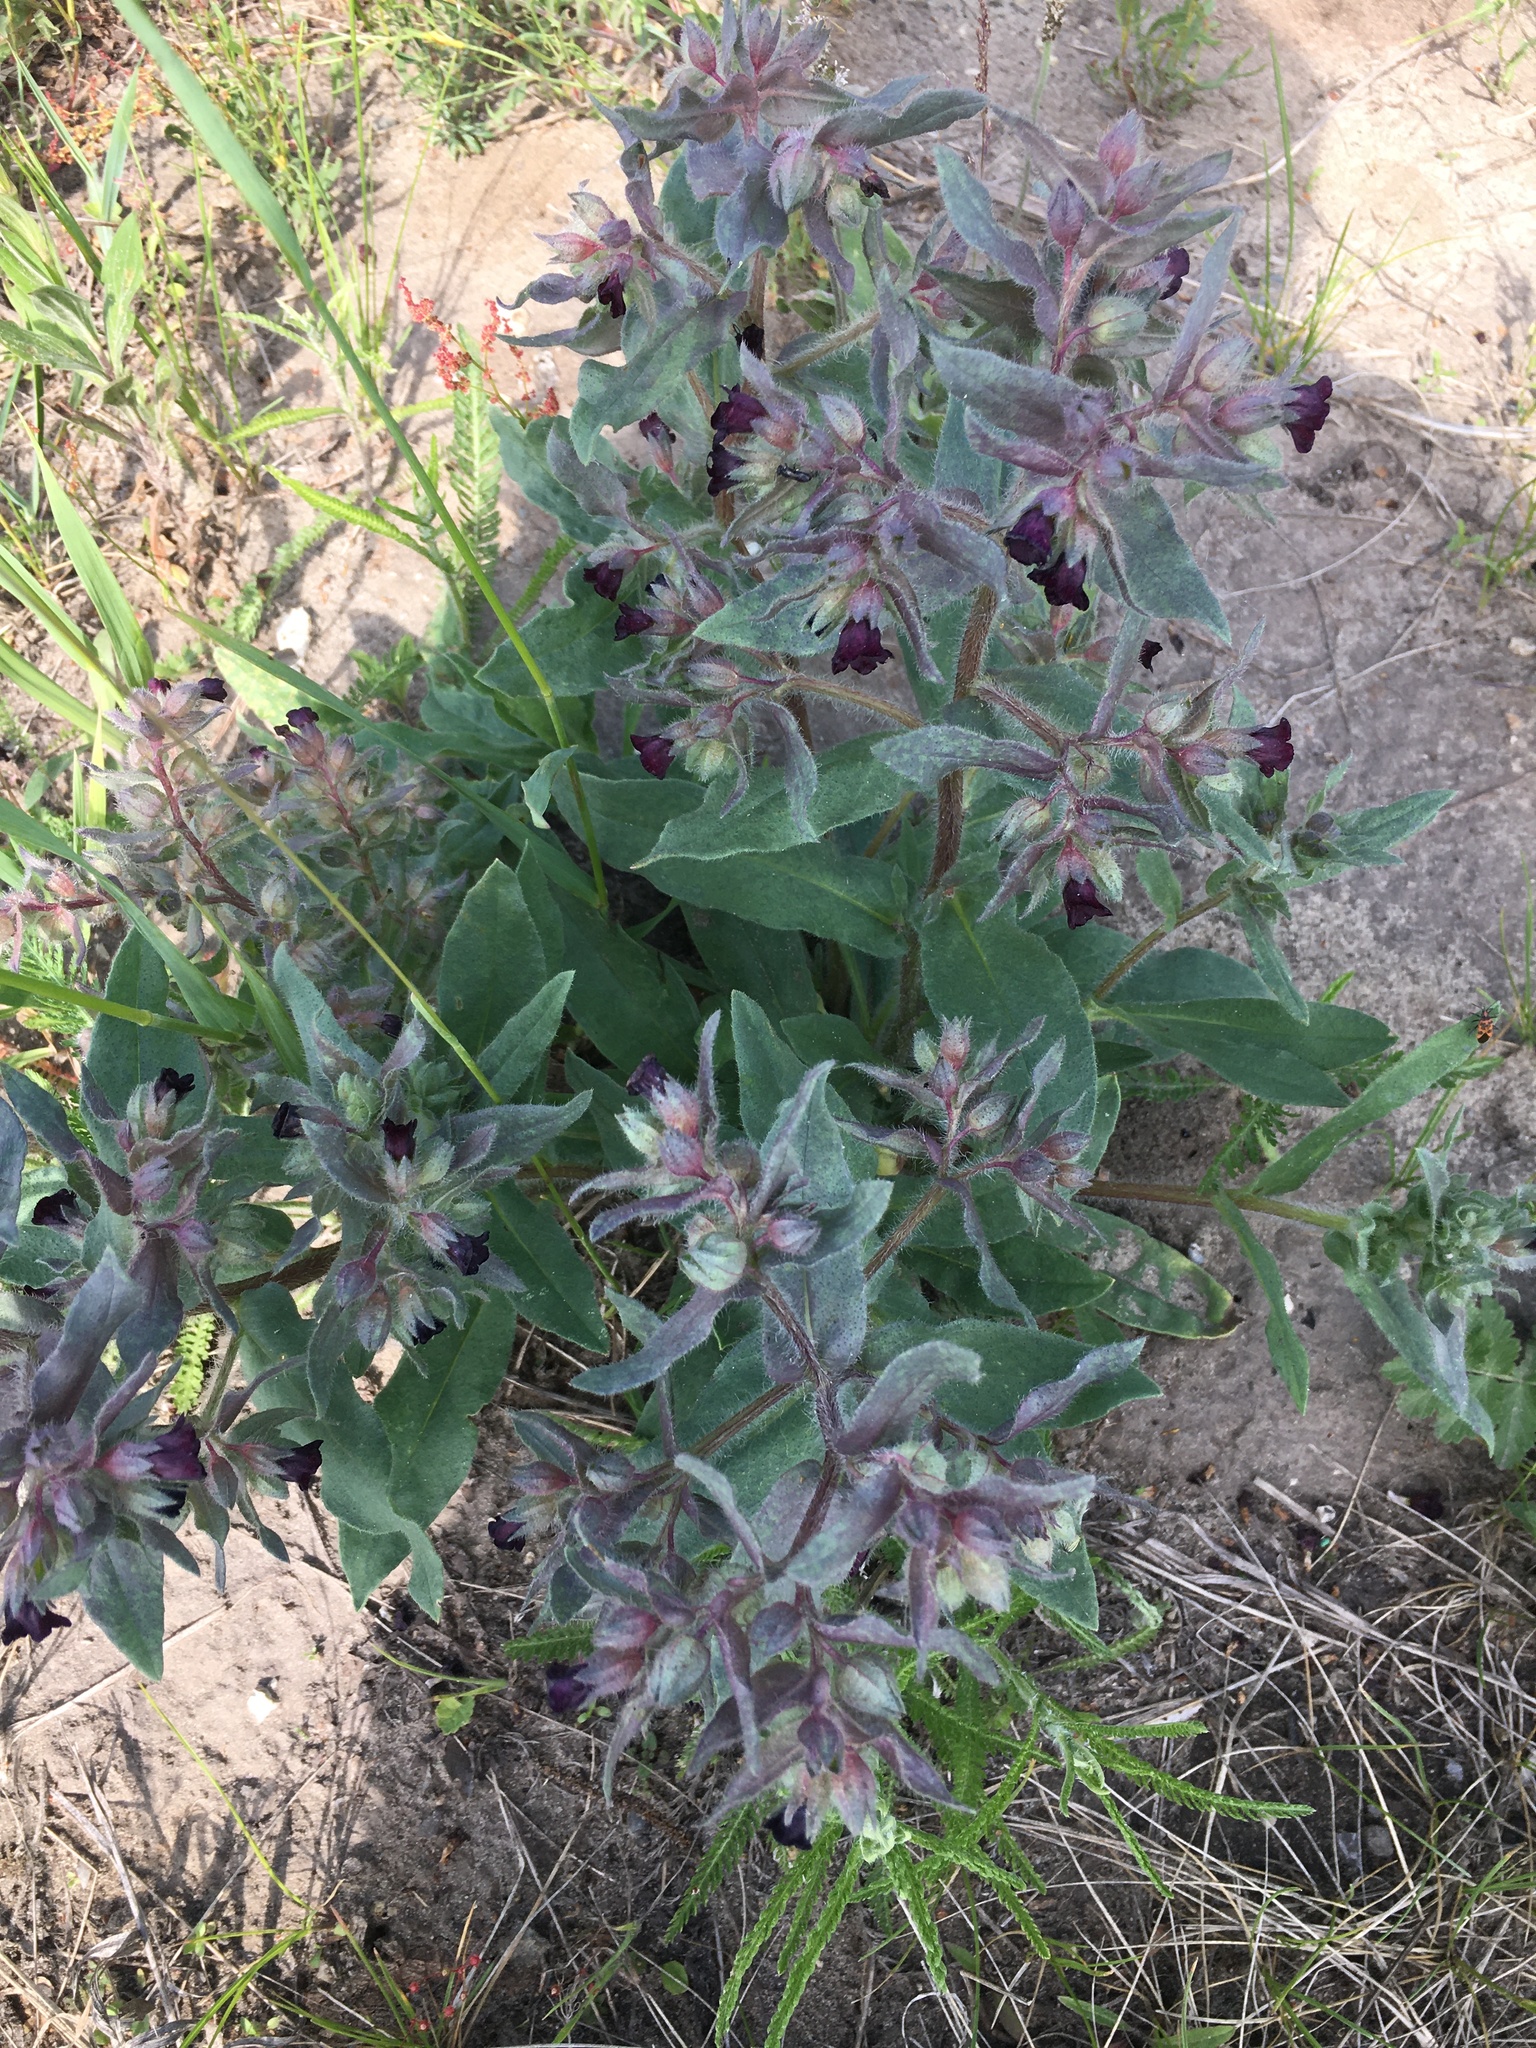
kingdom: Plantae
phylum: Tracheophyta
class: Magnoliopsida
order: Boraginales
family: Boraginaceae
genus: Nonea
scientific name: Nonea pulla
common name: Brown nonea
